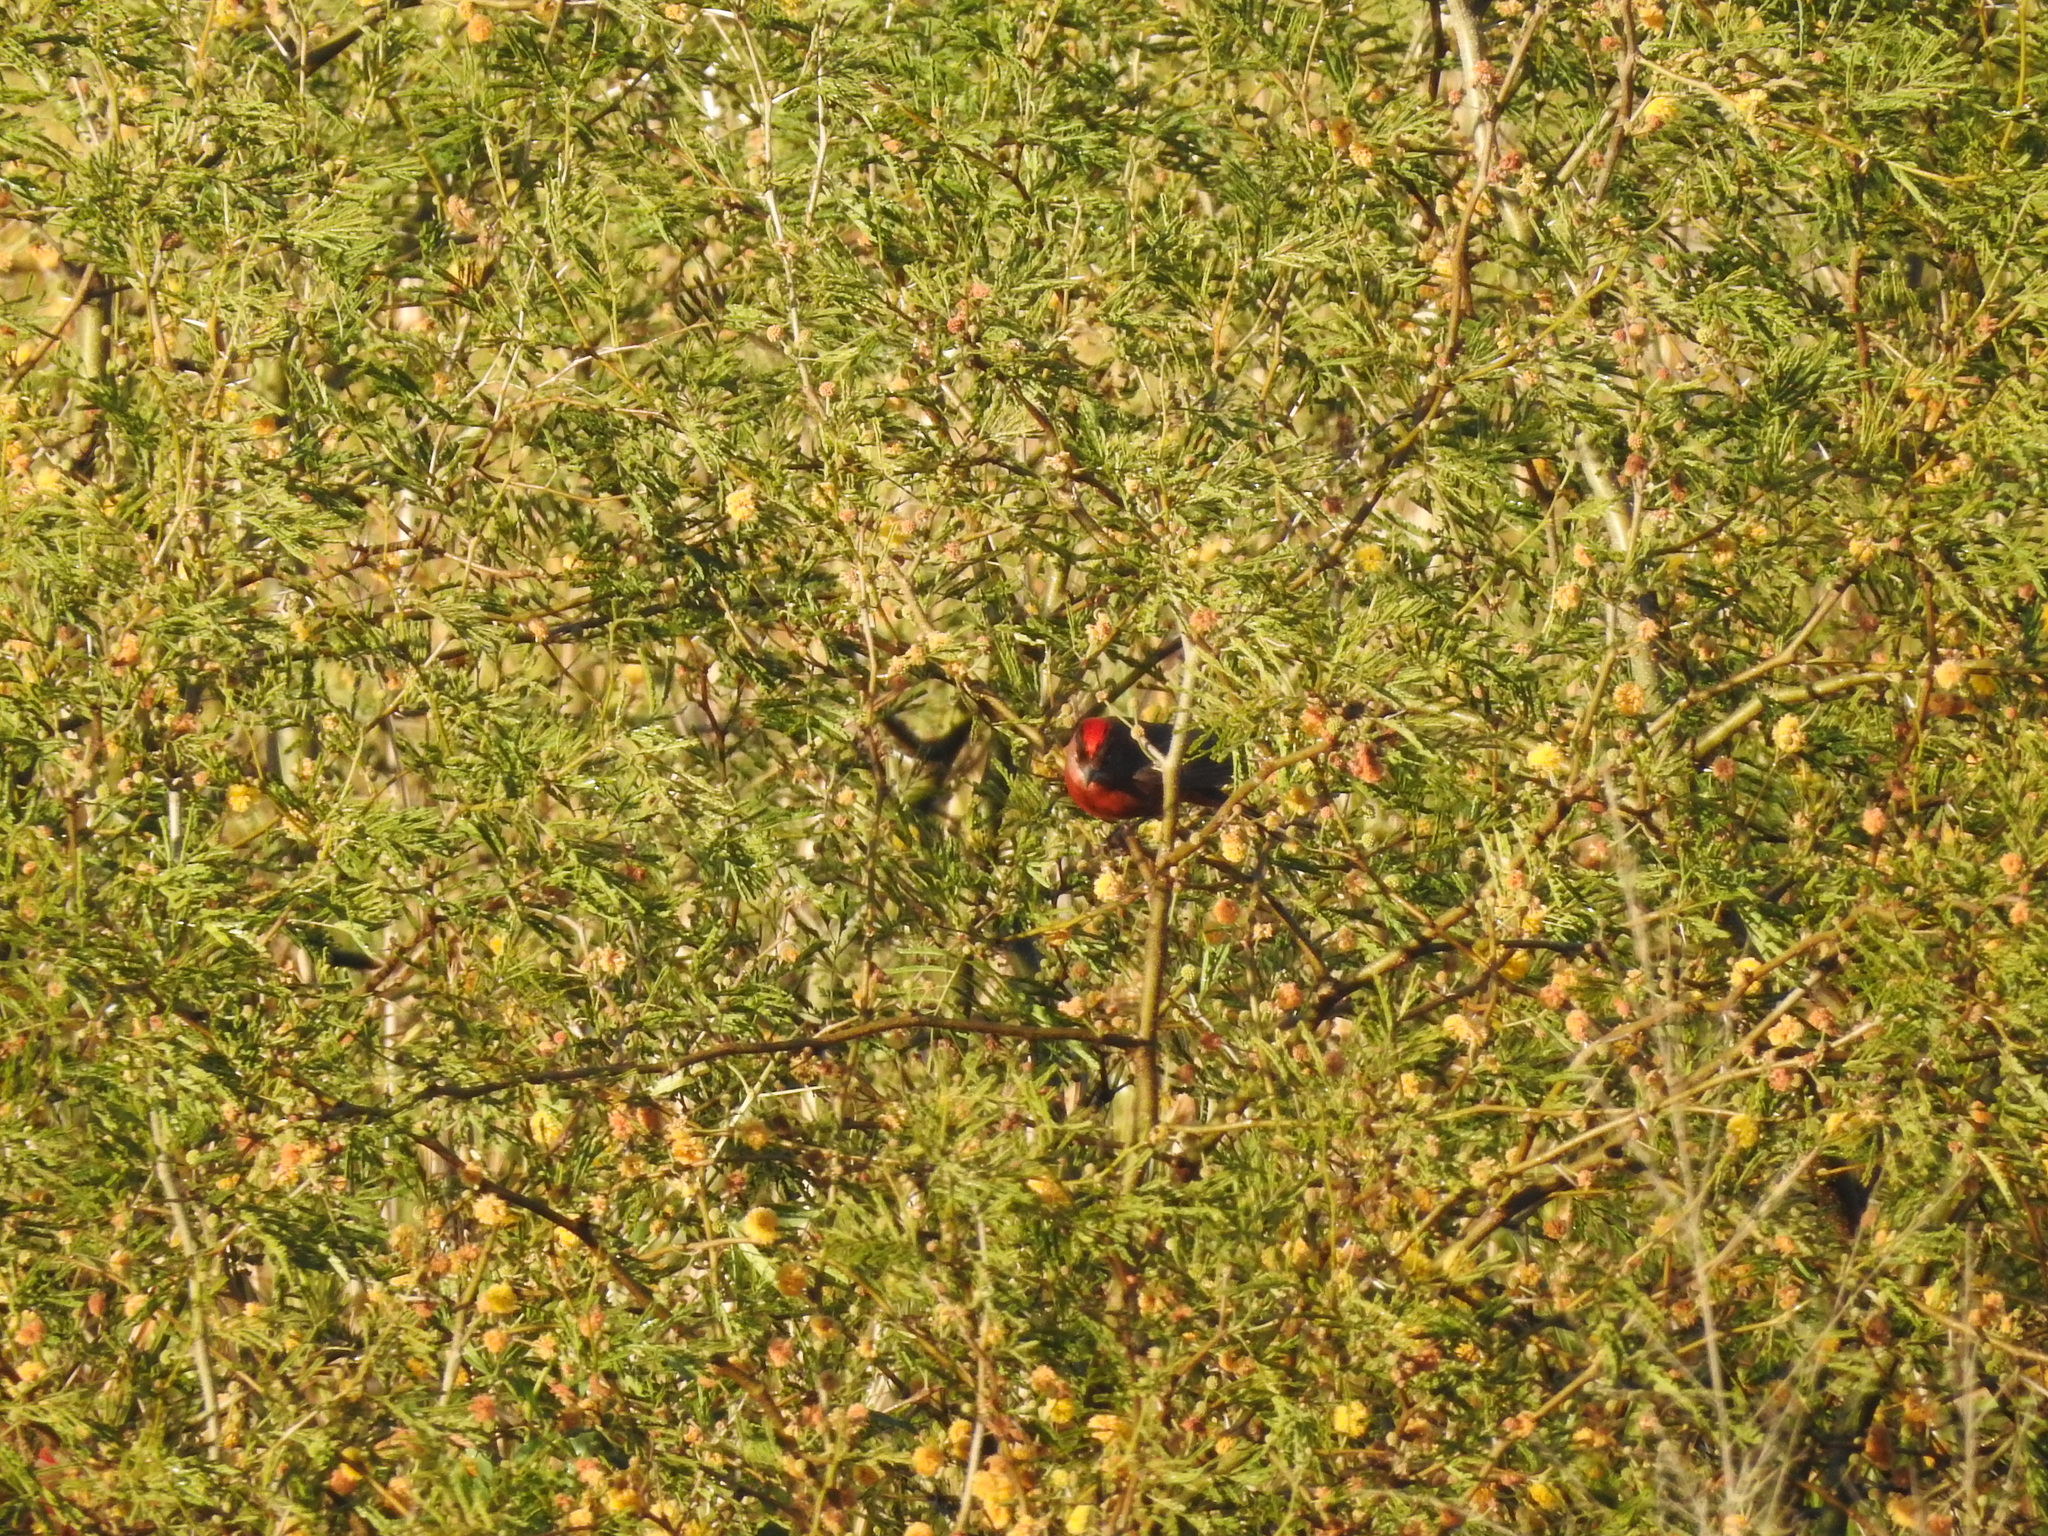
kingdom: Animalia
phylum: Chordata
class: Aves
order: Passeriformes
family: Thraupidae
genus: Coryphospingus
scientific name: Coryphospingus cucullatus
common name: Red pileated finch
